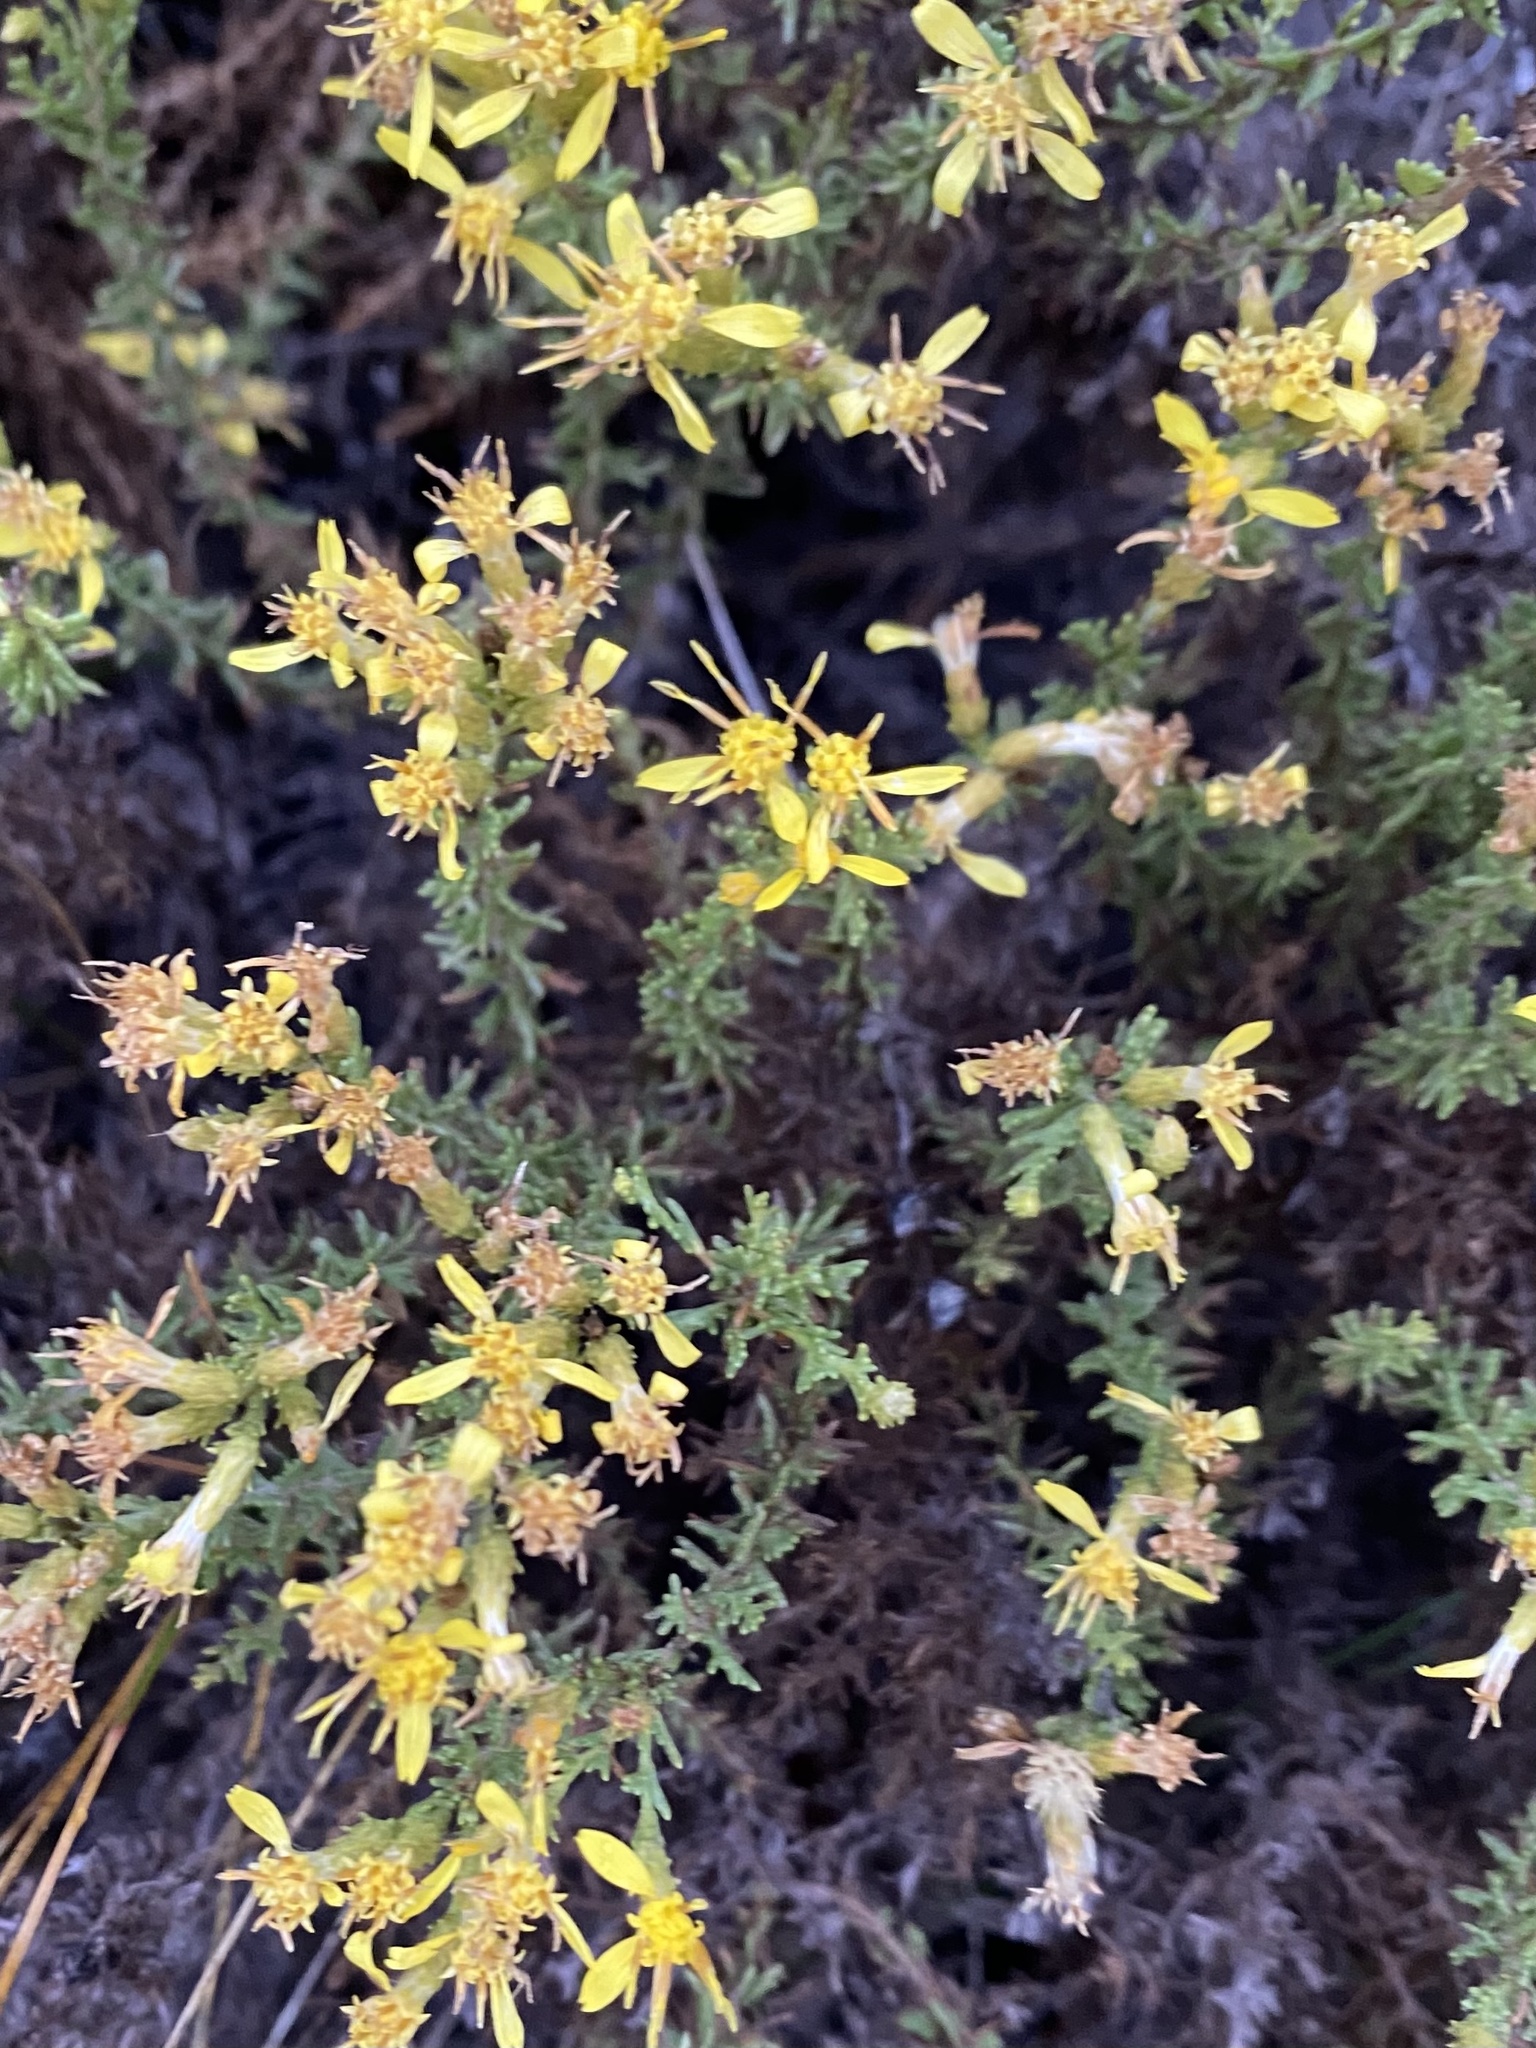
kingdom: Plantae
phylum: Tracheophyta
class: Magnoliopsida
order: Asterales
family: Asteraceae
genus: Ericameria
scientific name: Ericameria ericoides
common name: California goldenbush
